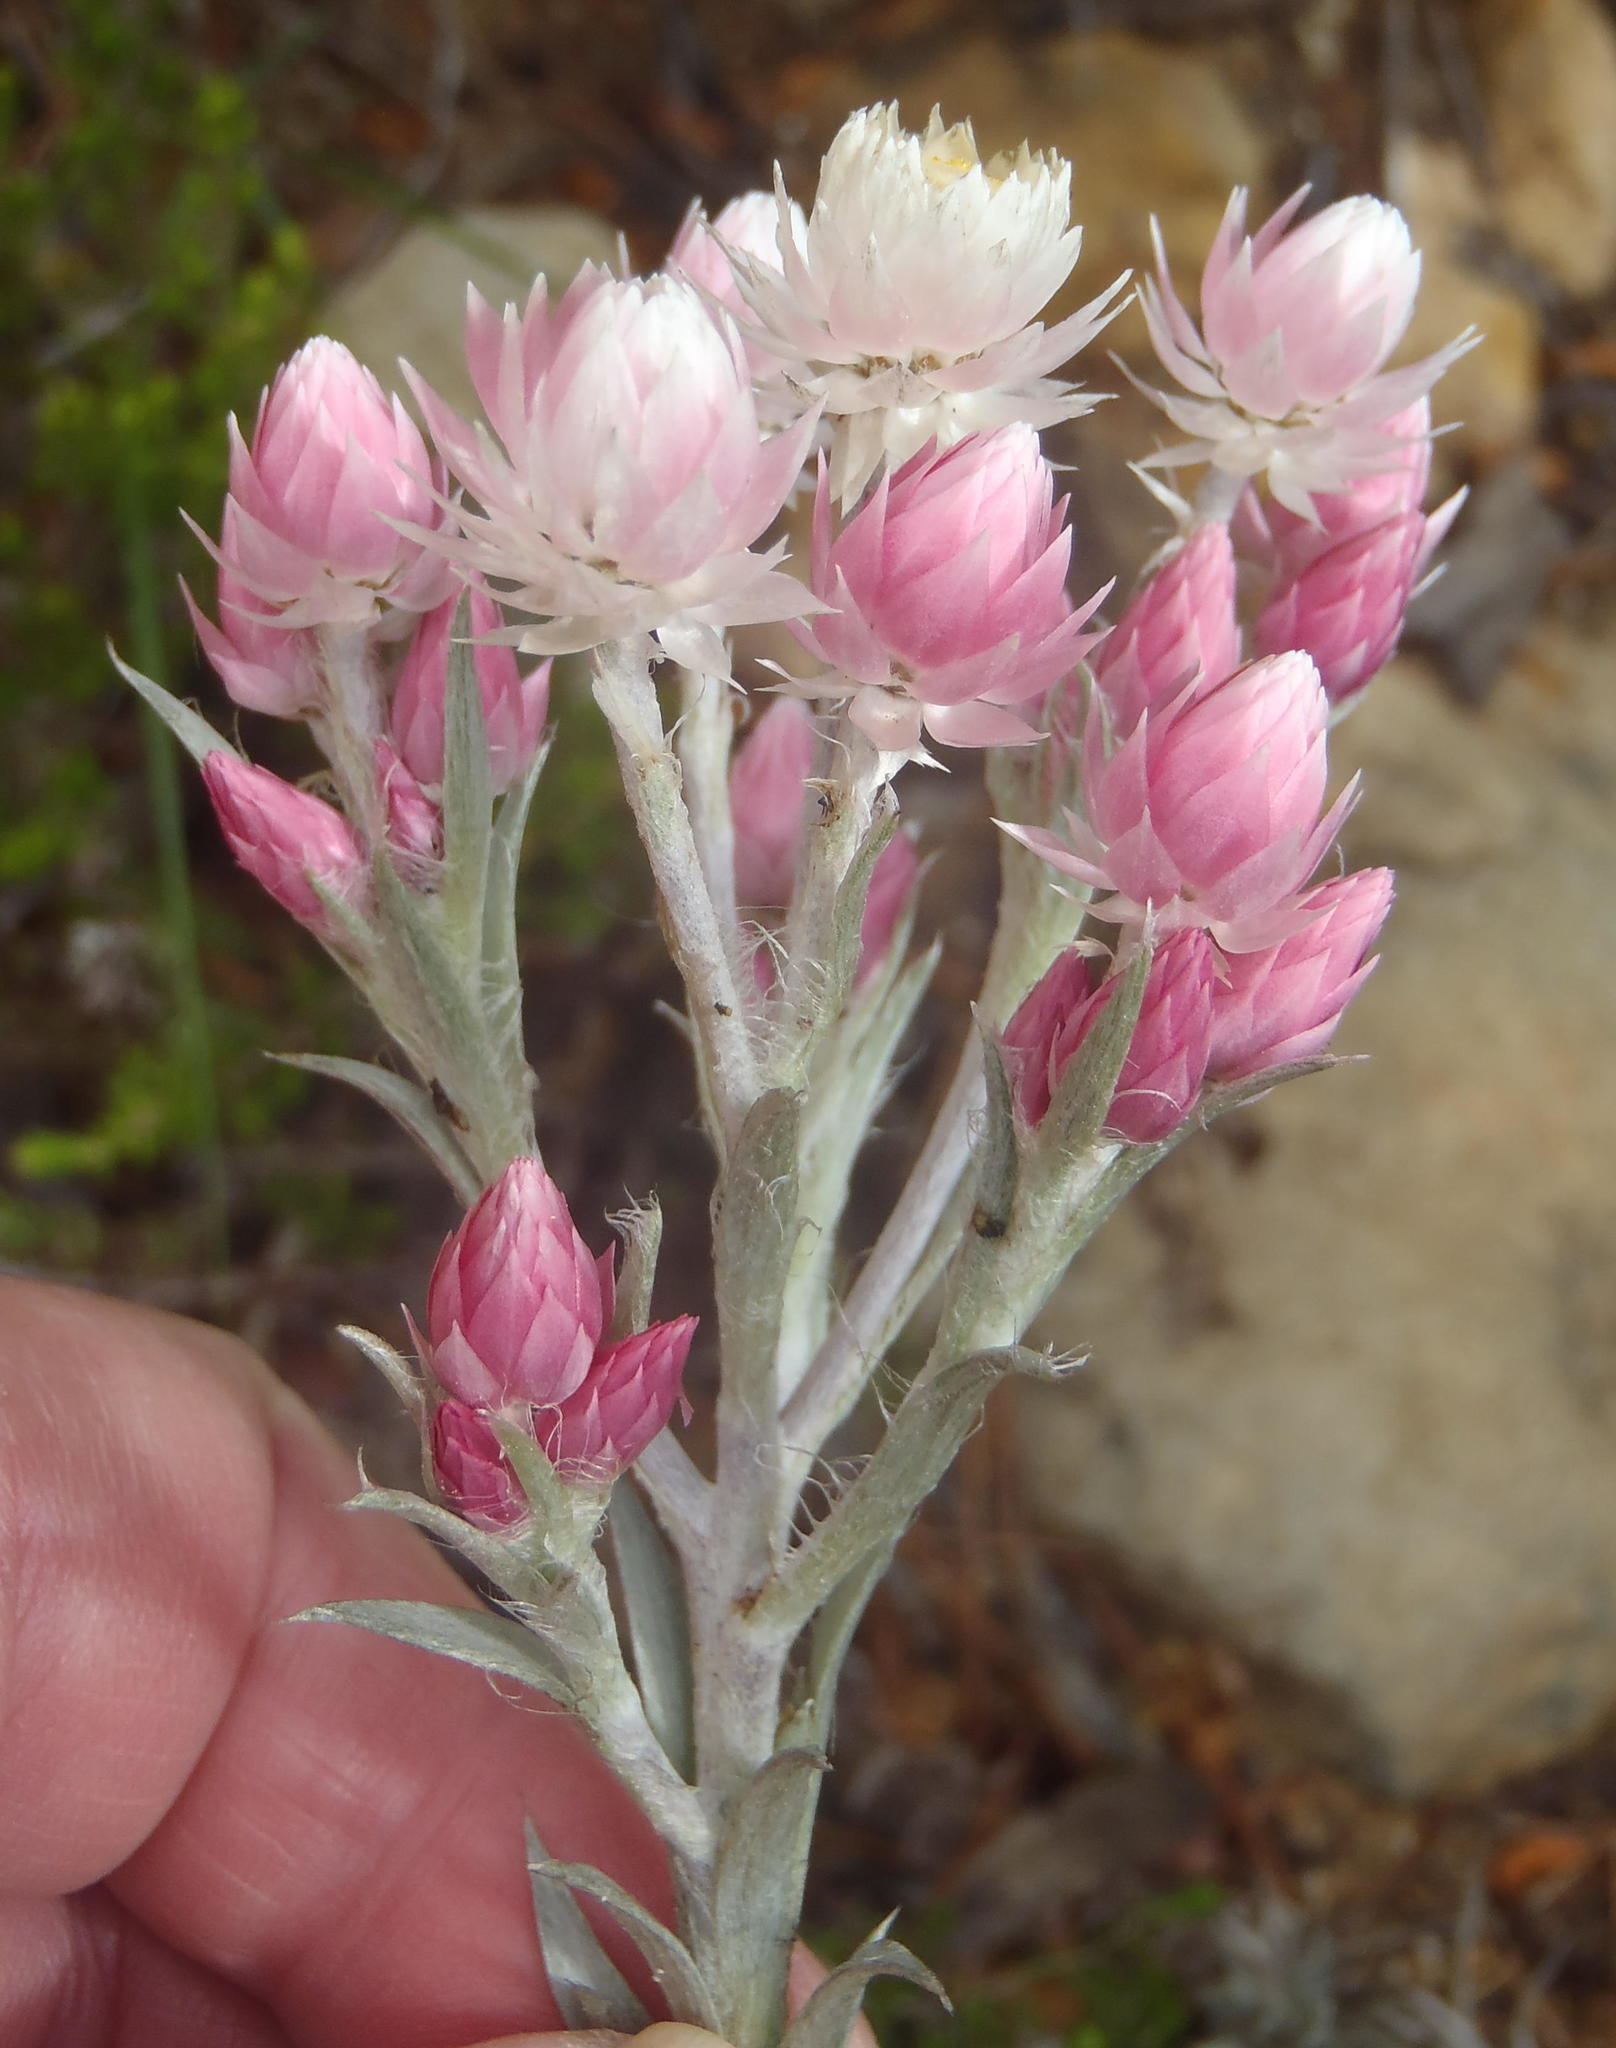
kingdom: Plantae
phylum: Tracheophyta
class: Magnoliopsida
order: Asterales
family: Asteraceae
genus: Achyranthemum
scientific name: Achyranthemum paniculatum
